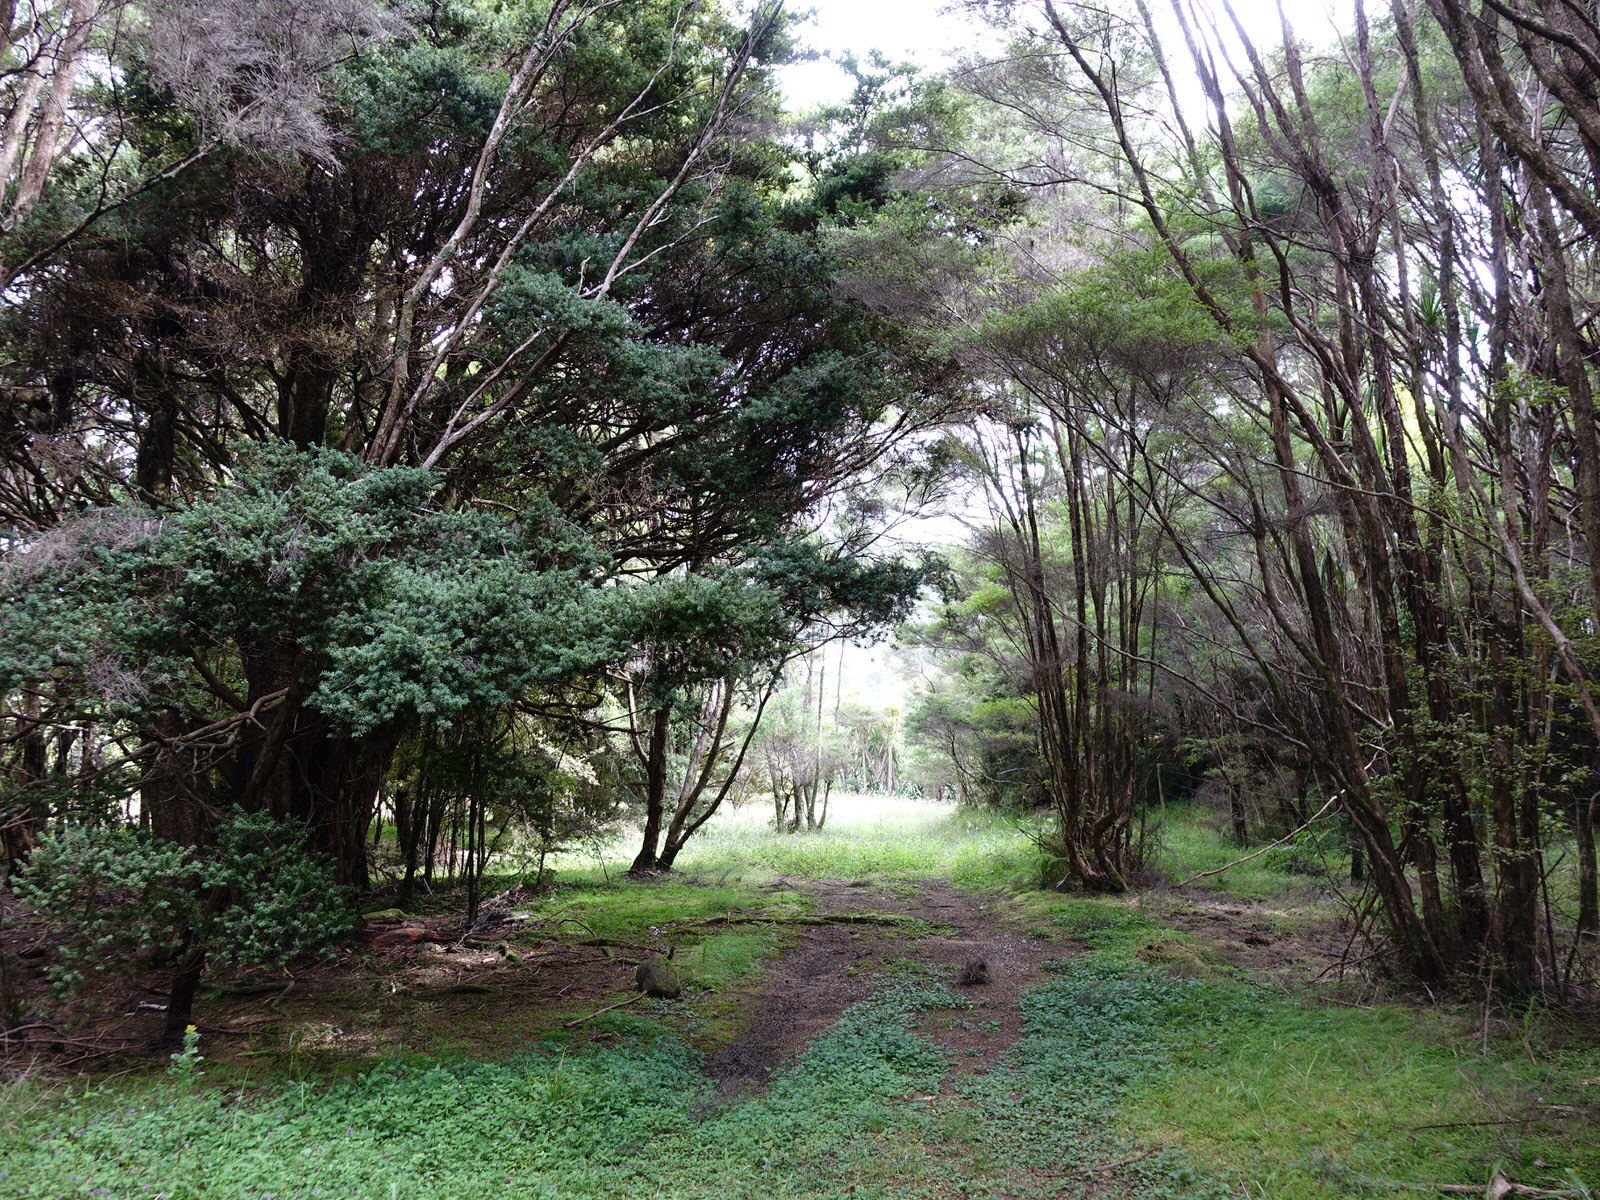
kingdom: Animalia
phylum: Chordata
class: Aves
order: Passeriformes
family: Meliphagidae
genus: Prosthemadera
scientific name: Prosthemadera novaeseelandiae
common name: Tui
